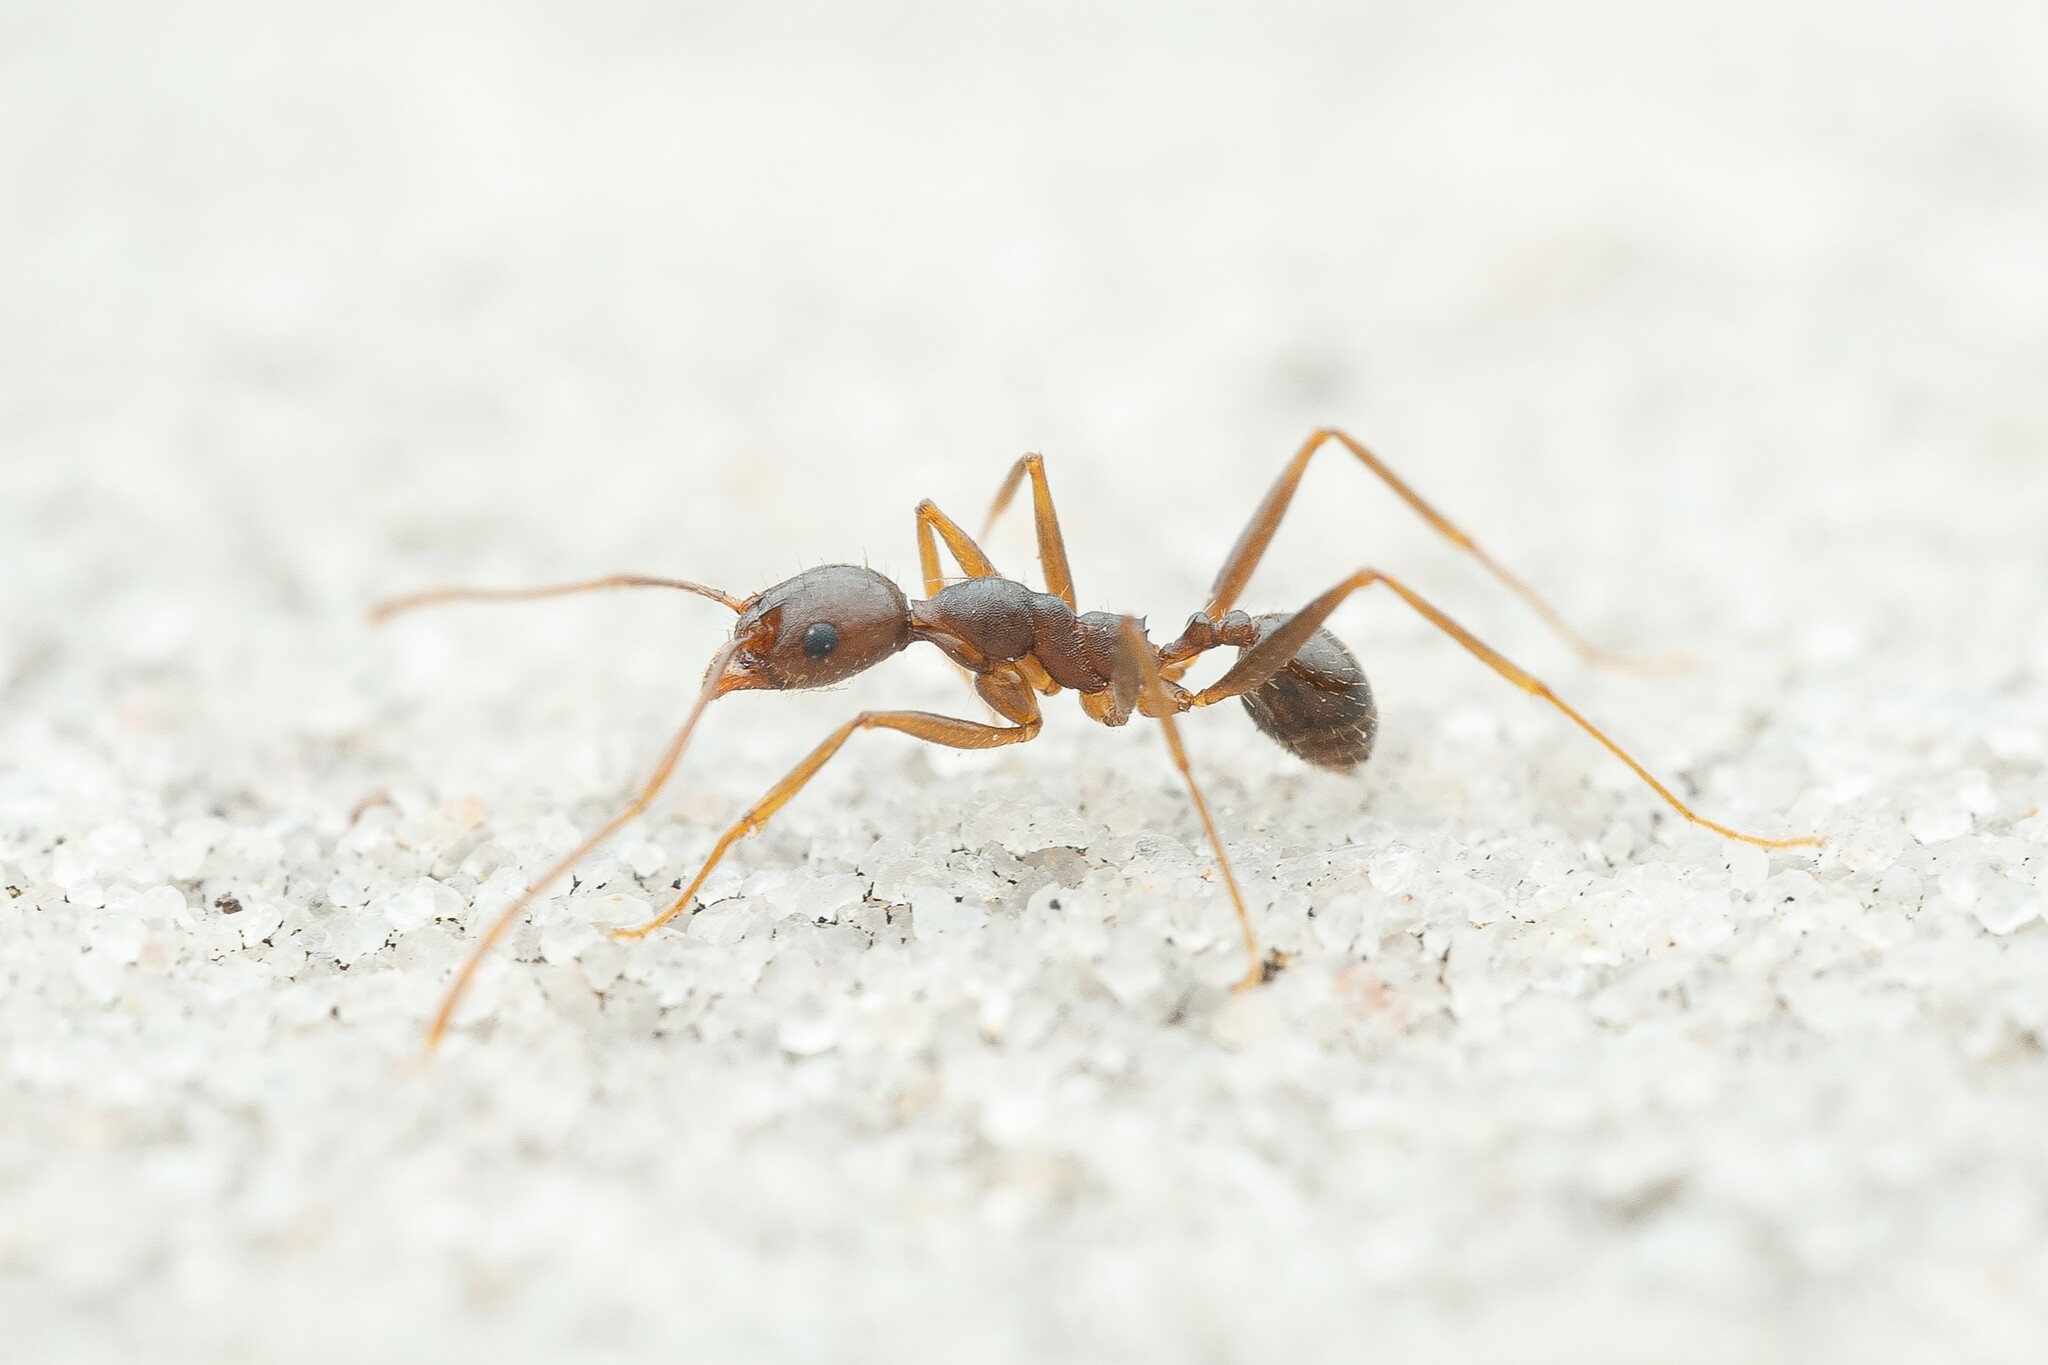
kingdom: Animalia
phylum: Arthropoda
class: Insecta
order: Hymenoptera
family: Formicidae
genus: Pheidole
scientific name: Pheidole portalensis
